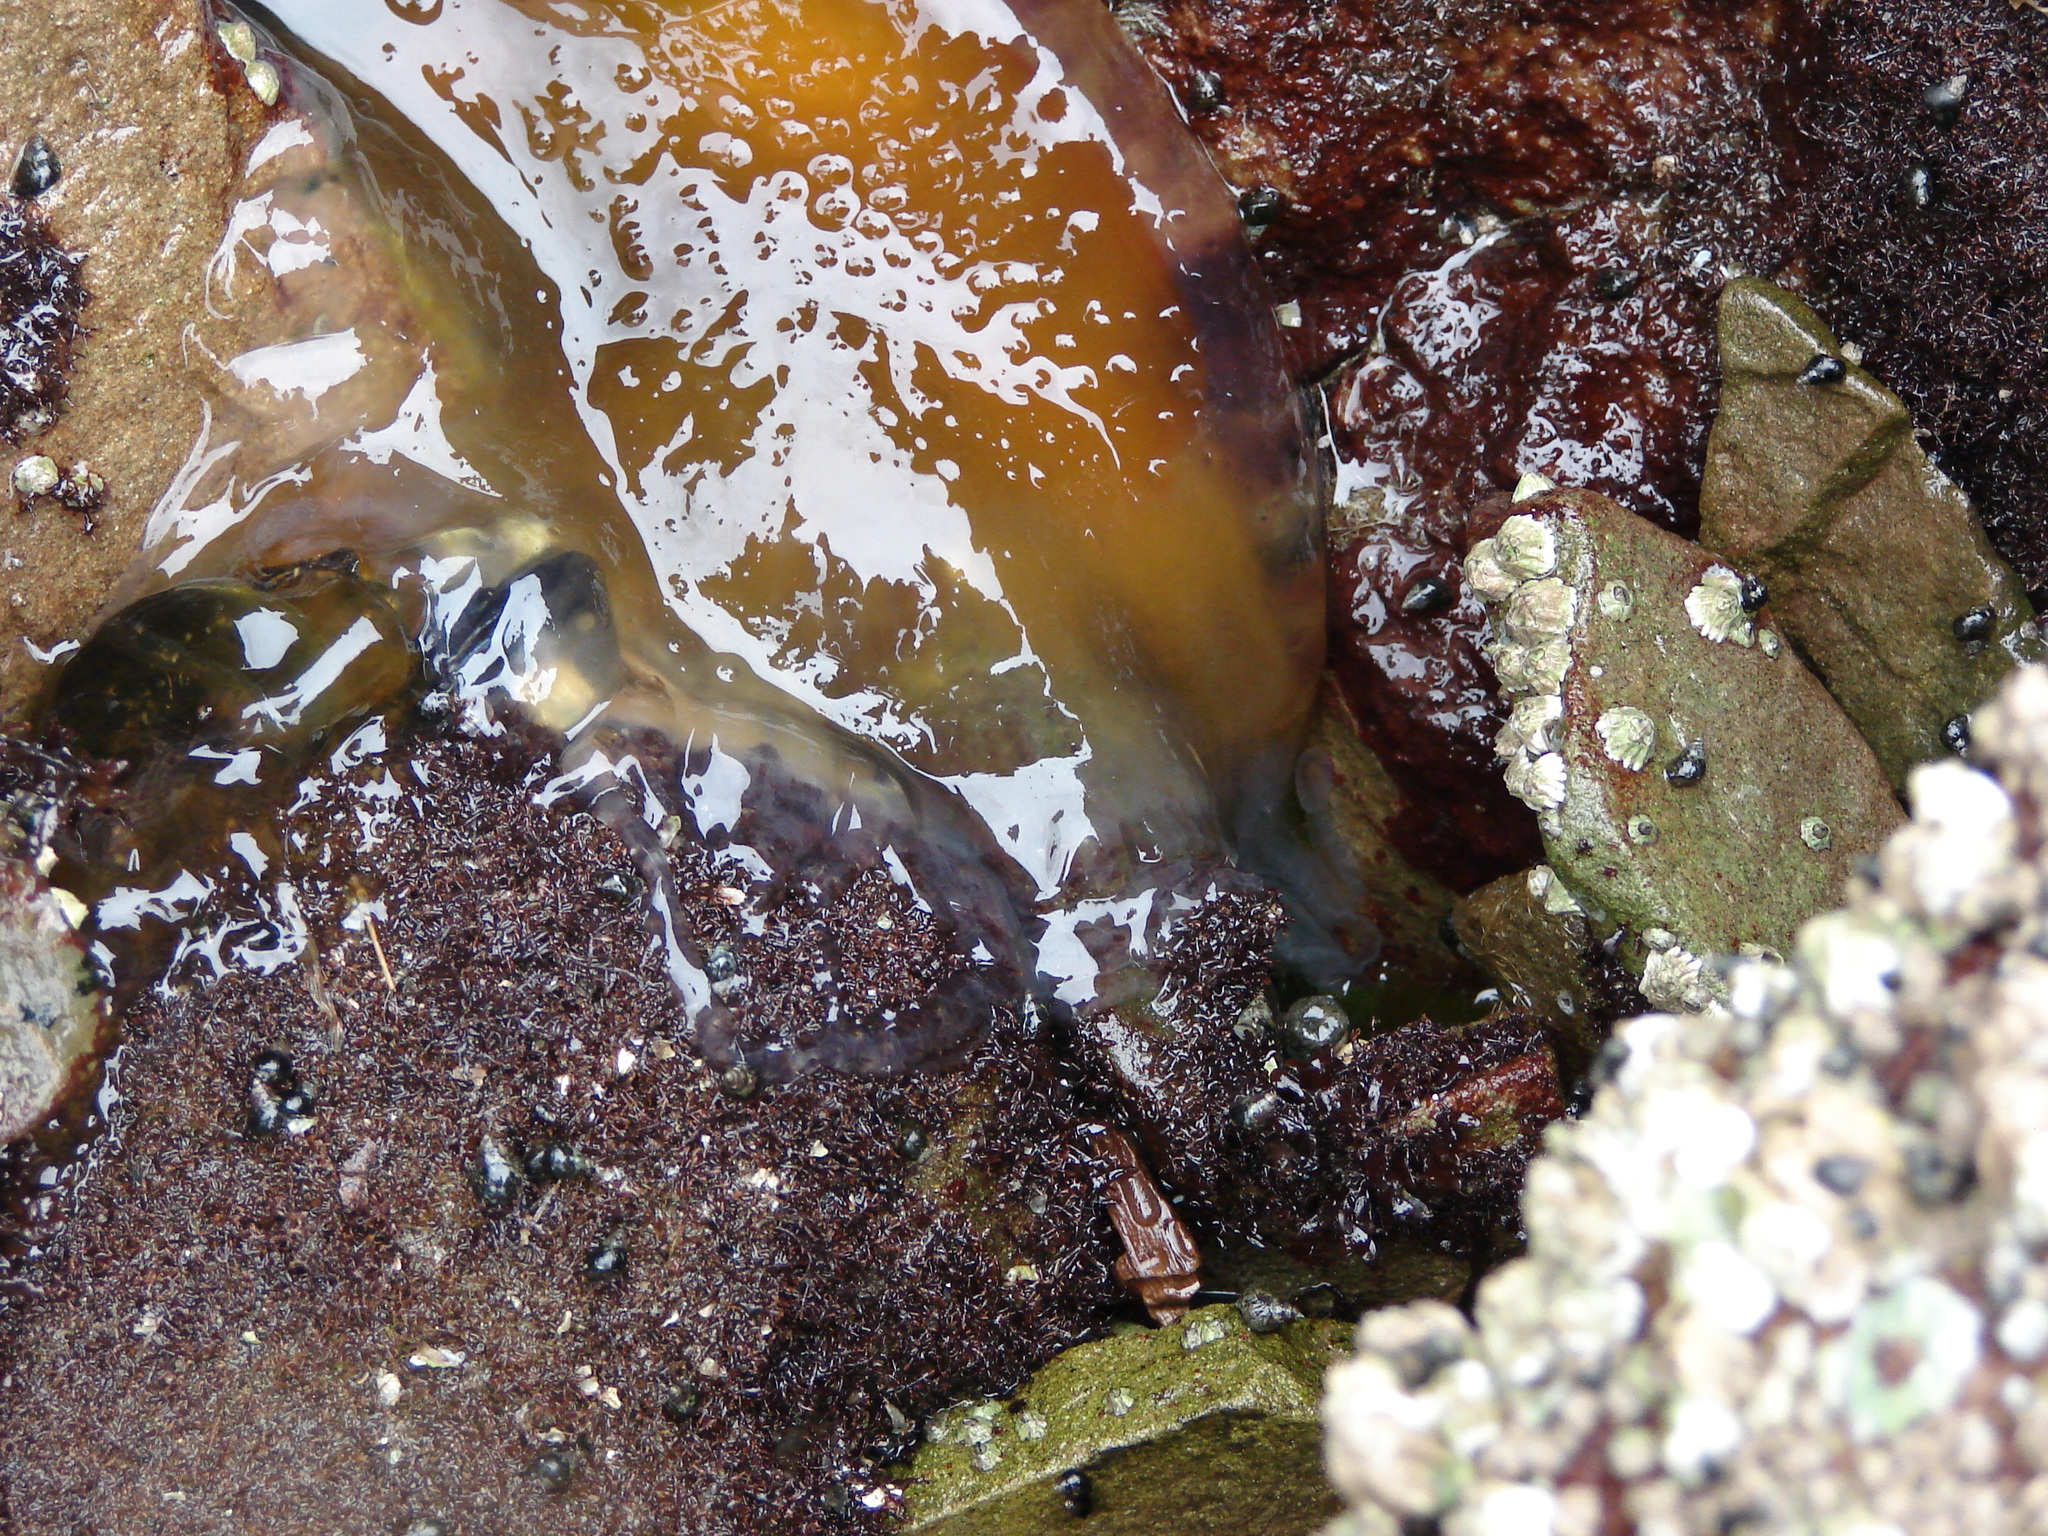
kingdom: Animalia
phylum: Cnidaria
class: Scyphozoa
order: Semaeostomeae
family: Phacellophoridae
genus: Phacellophora
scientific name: Phacellophora camtschatica
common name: Fried-egg jellyfish
